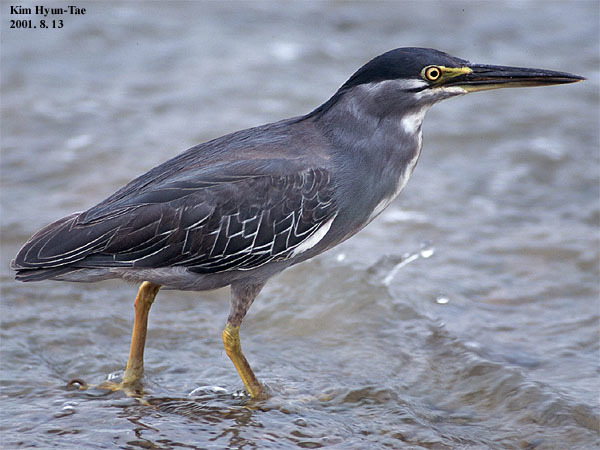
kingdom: Animalia
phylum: Chordata
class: Aves
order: Pelecaniformes
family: Ardeidae
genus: Butorides
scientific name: Butorides striata
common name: Striated heron
